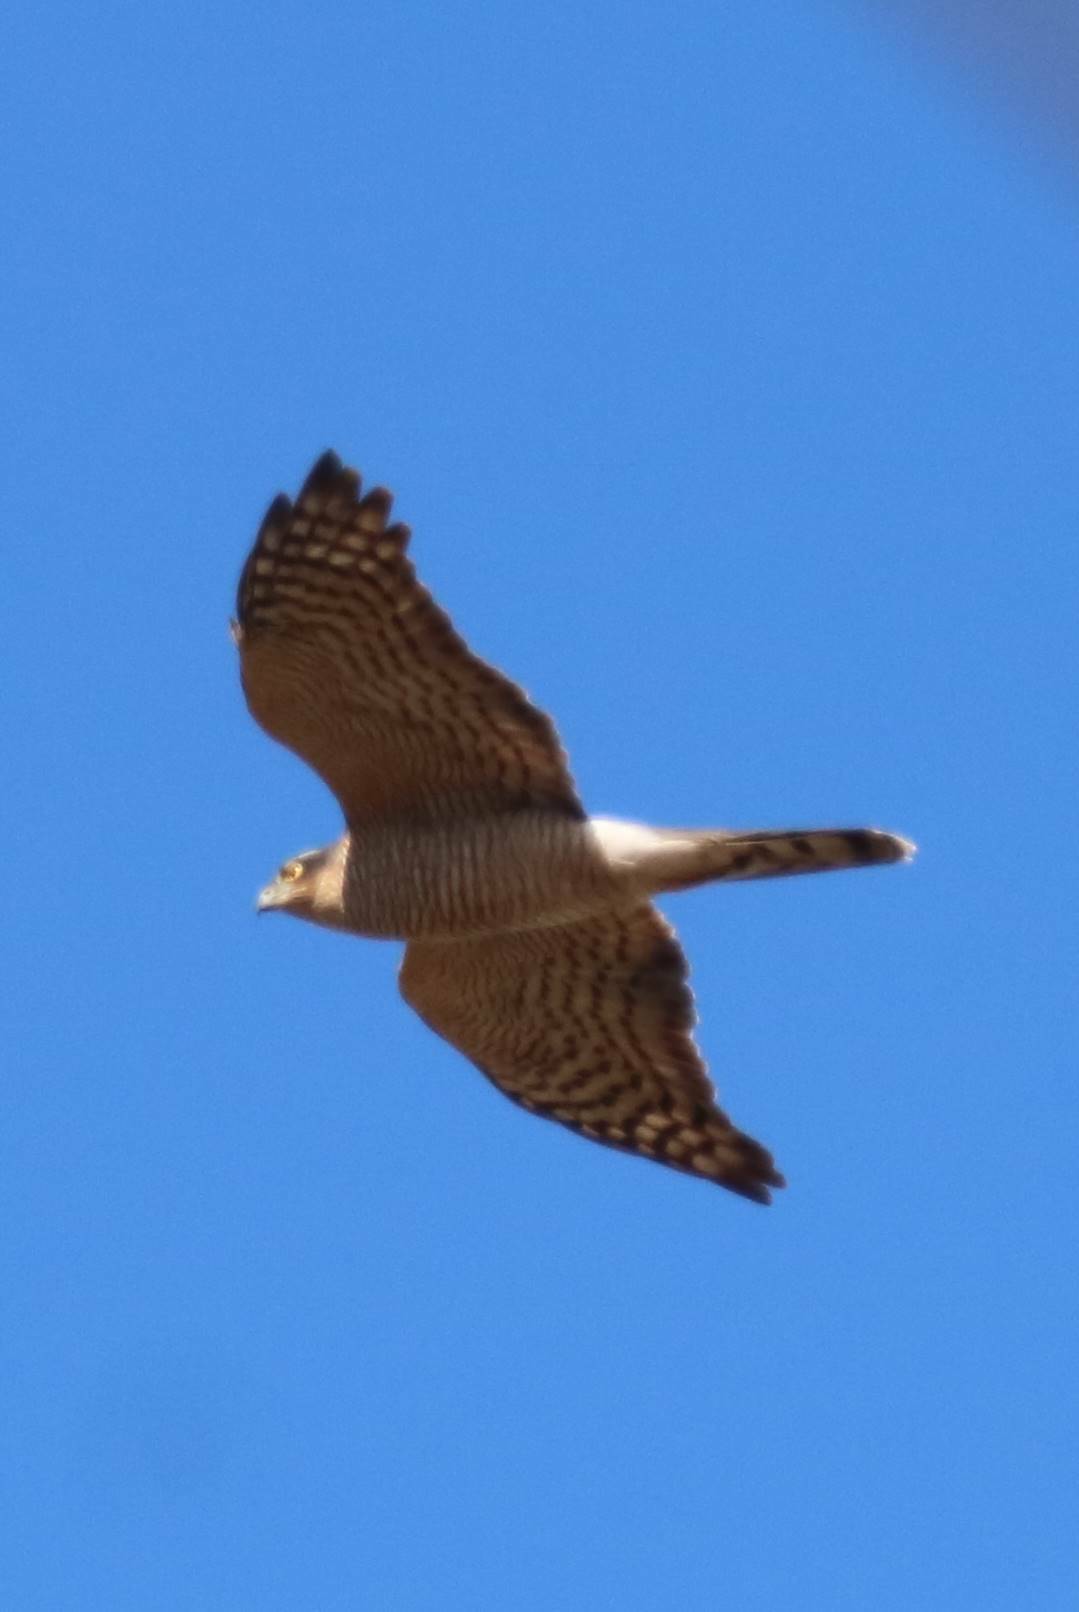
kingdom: Animalia
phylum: Chordata
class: Aves
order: Accipitriformes
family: Accipitridae
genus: Accipiter
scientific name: Accipiter nisus
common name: Eurasian sparrowhawk
